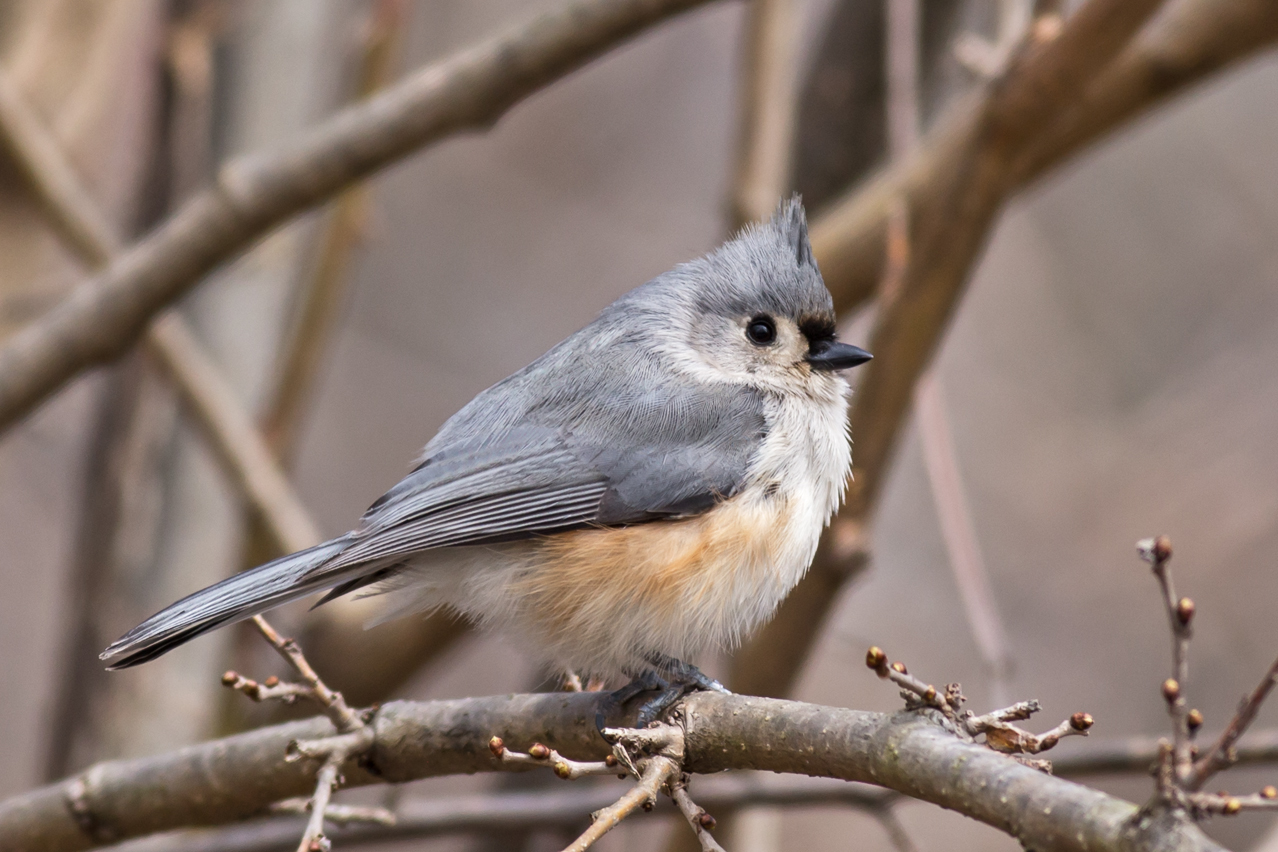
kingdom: Animalia
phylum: Chordata
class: Aves
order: Passeriformes
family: Paridae
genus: Baeolophus
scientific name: Baeolophus bicolor
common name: Tufted titmouse
